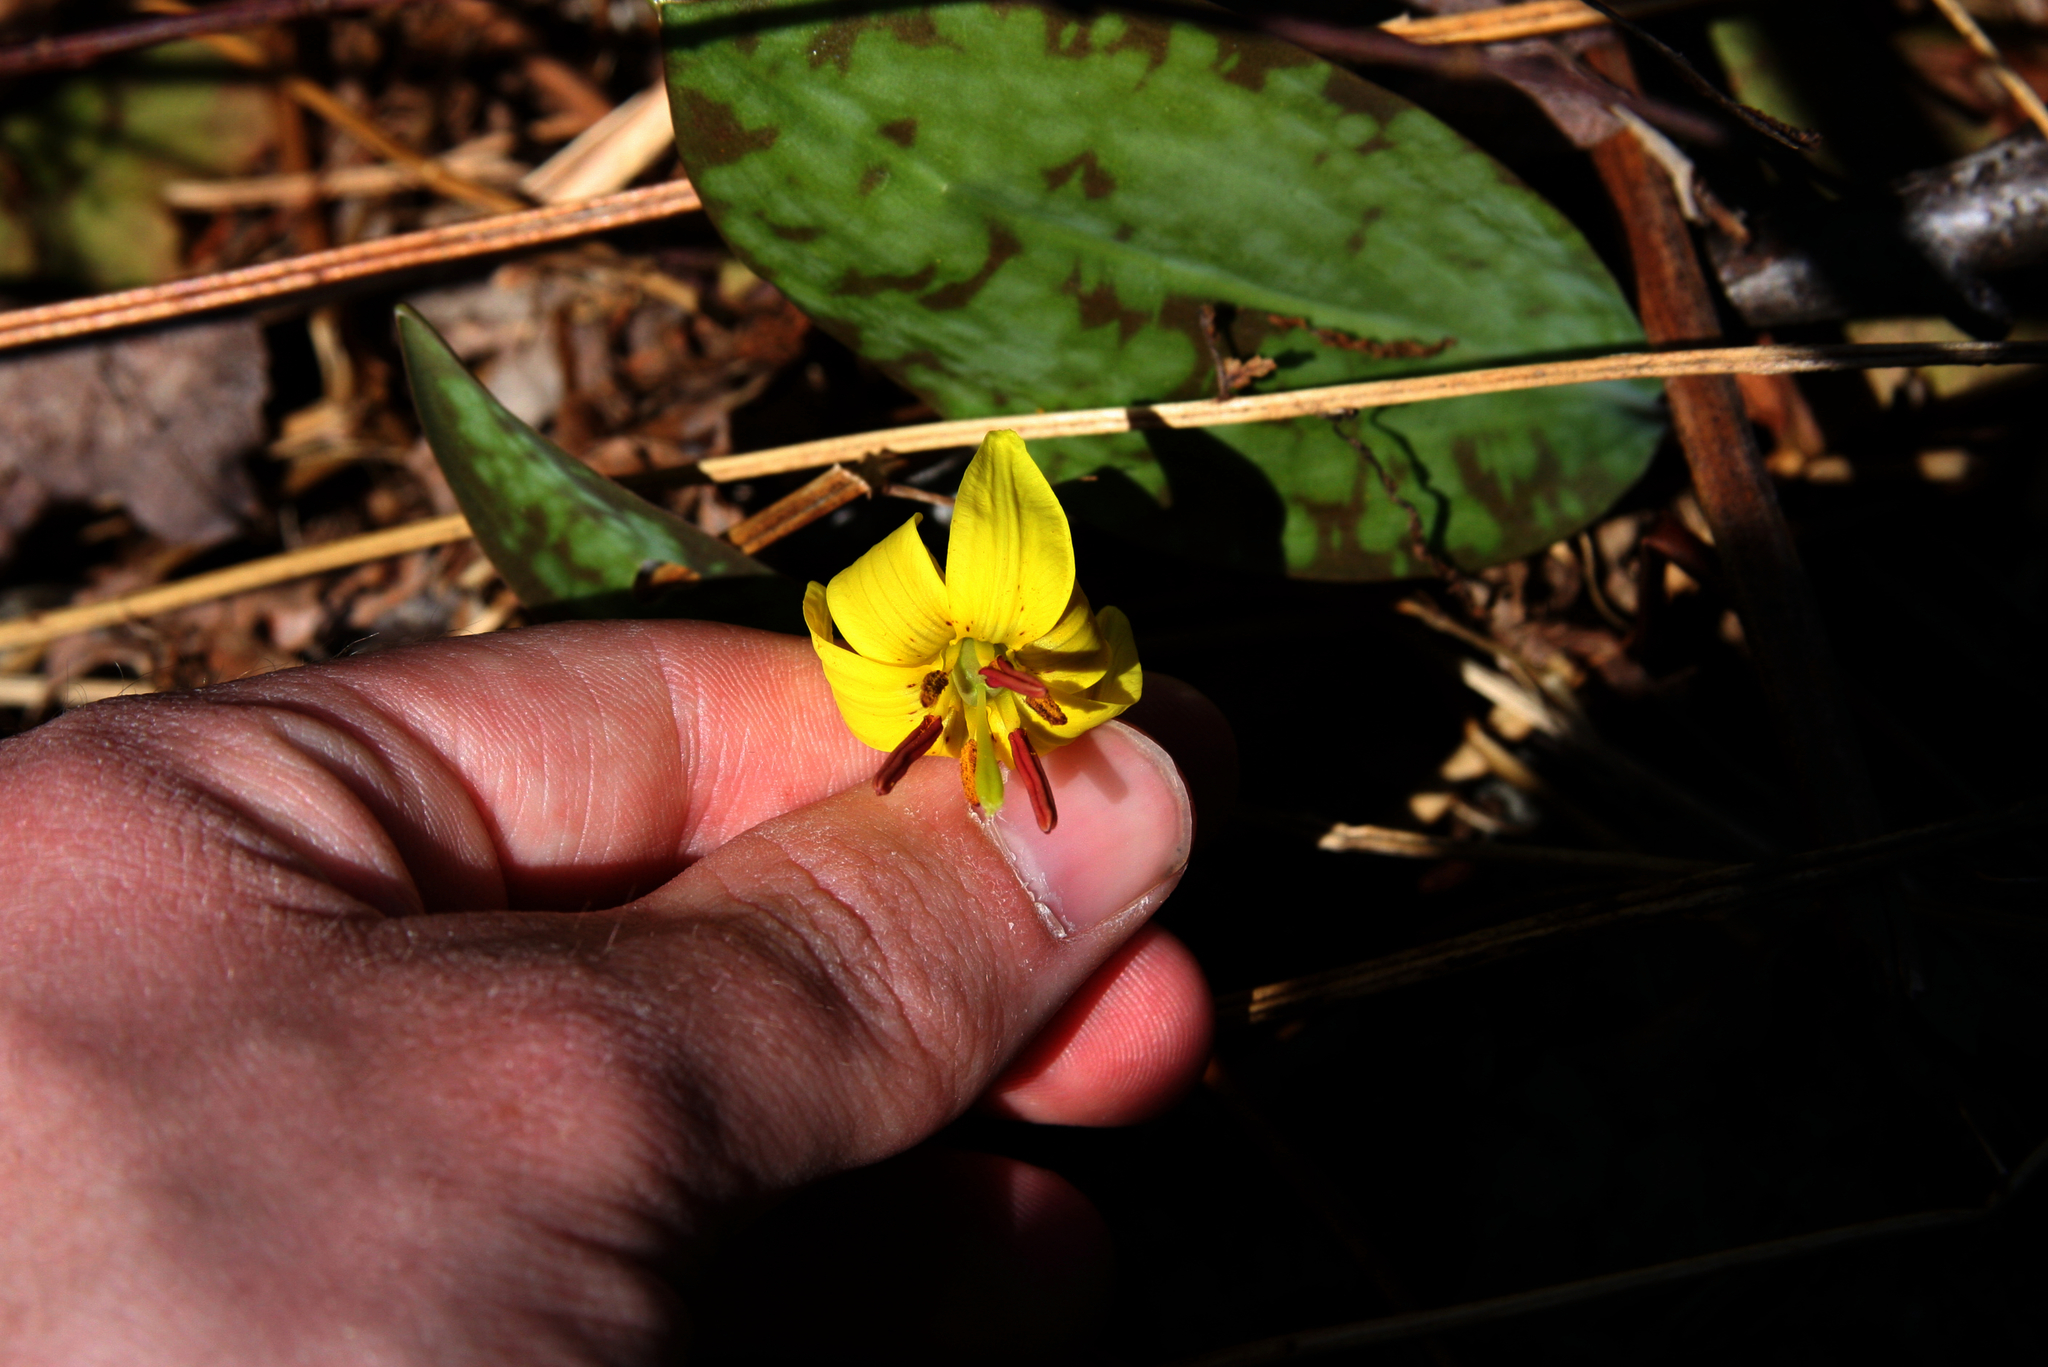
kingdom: Plantae
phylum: Tracheophyta
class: Liliopsida
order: Liliales
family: Liliaceae
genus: Erythronium
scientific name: Erythronium americanum
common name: Yellow adder's-tongue
